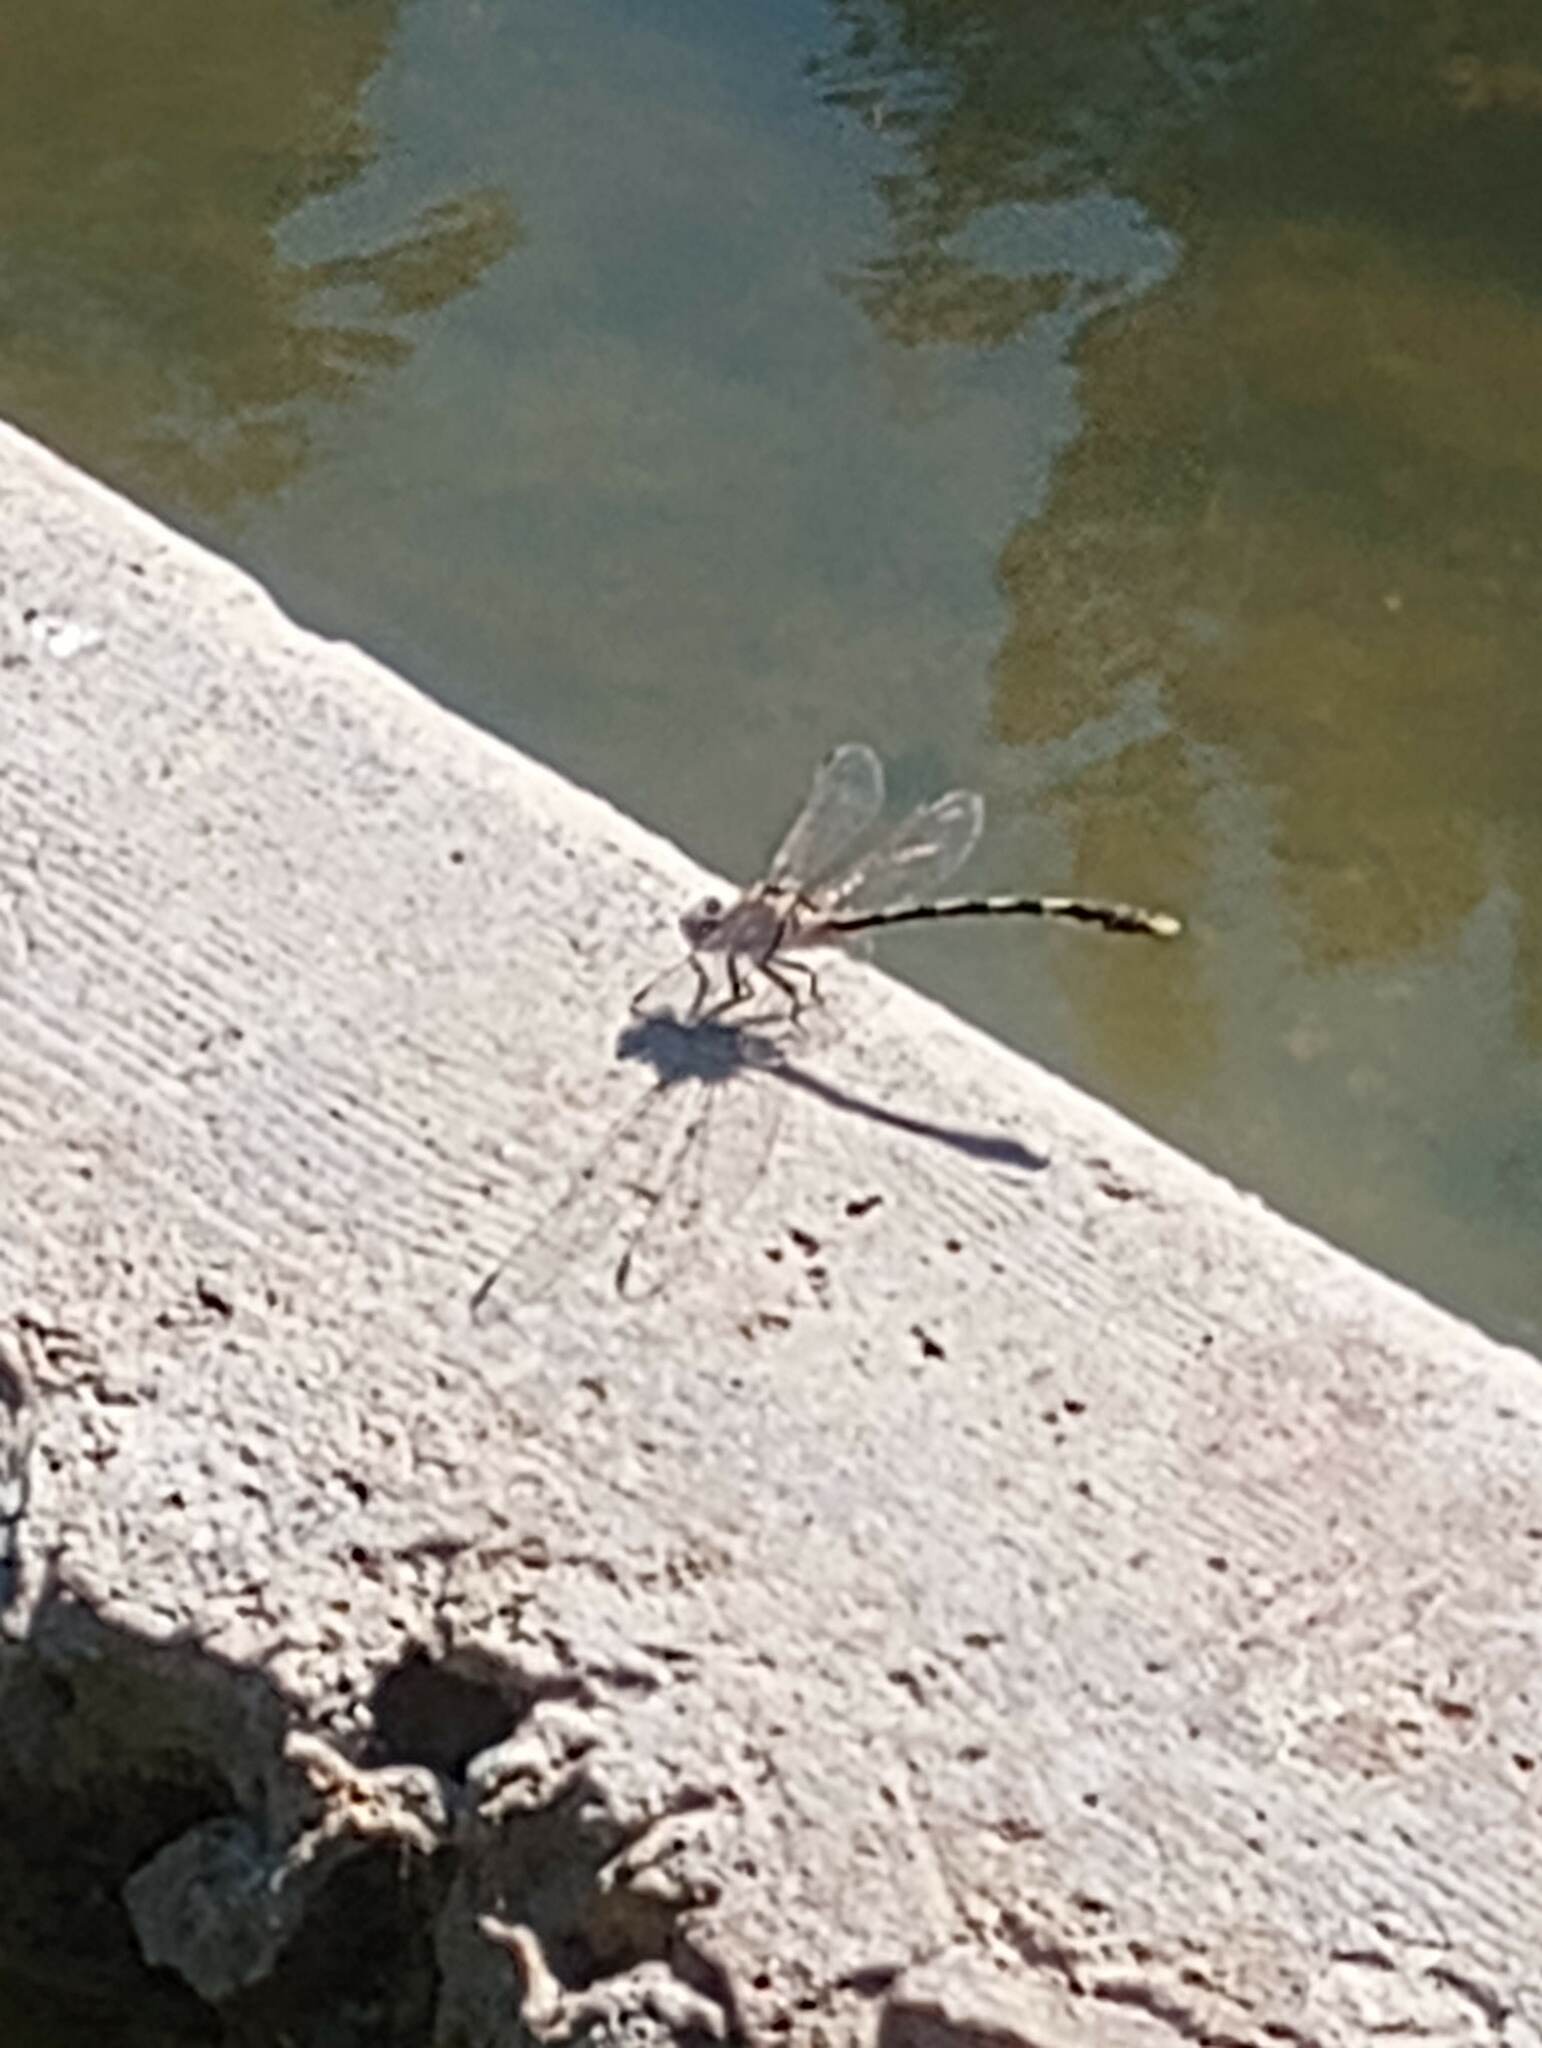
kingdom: Animalia
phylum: Arthropoda
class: Insecta
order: Odonata
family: Gomphidae
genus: Progomphus
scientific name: Progomphus borealis
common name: Gray sanddragon
